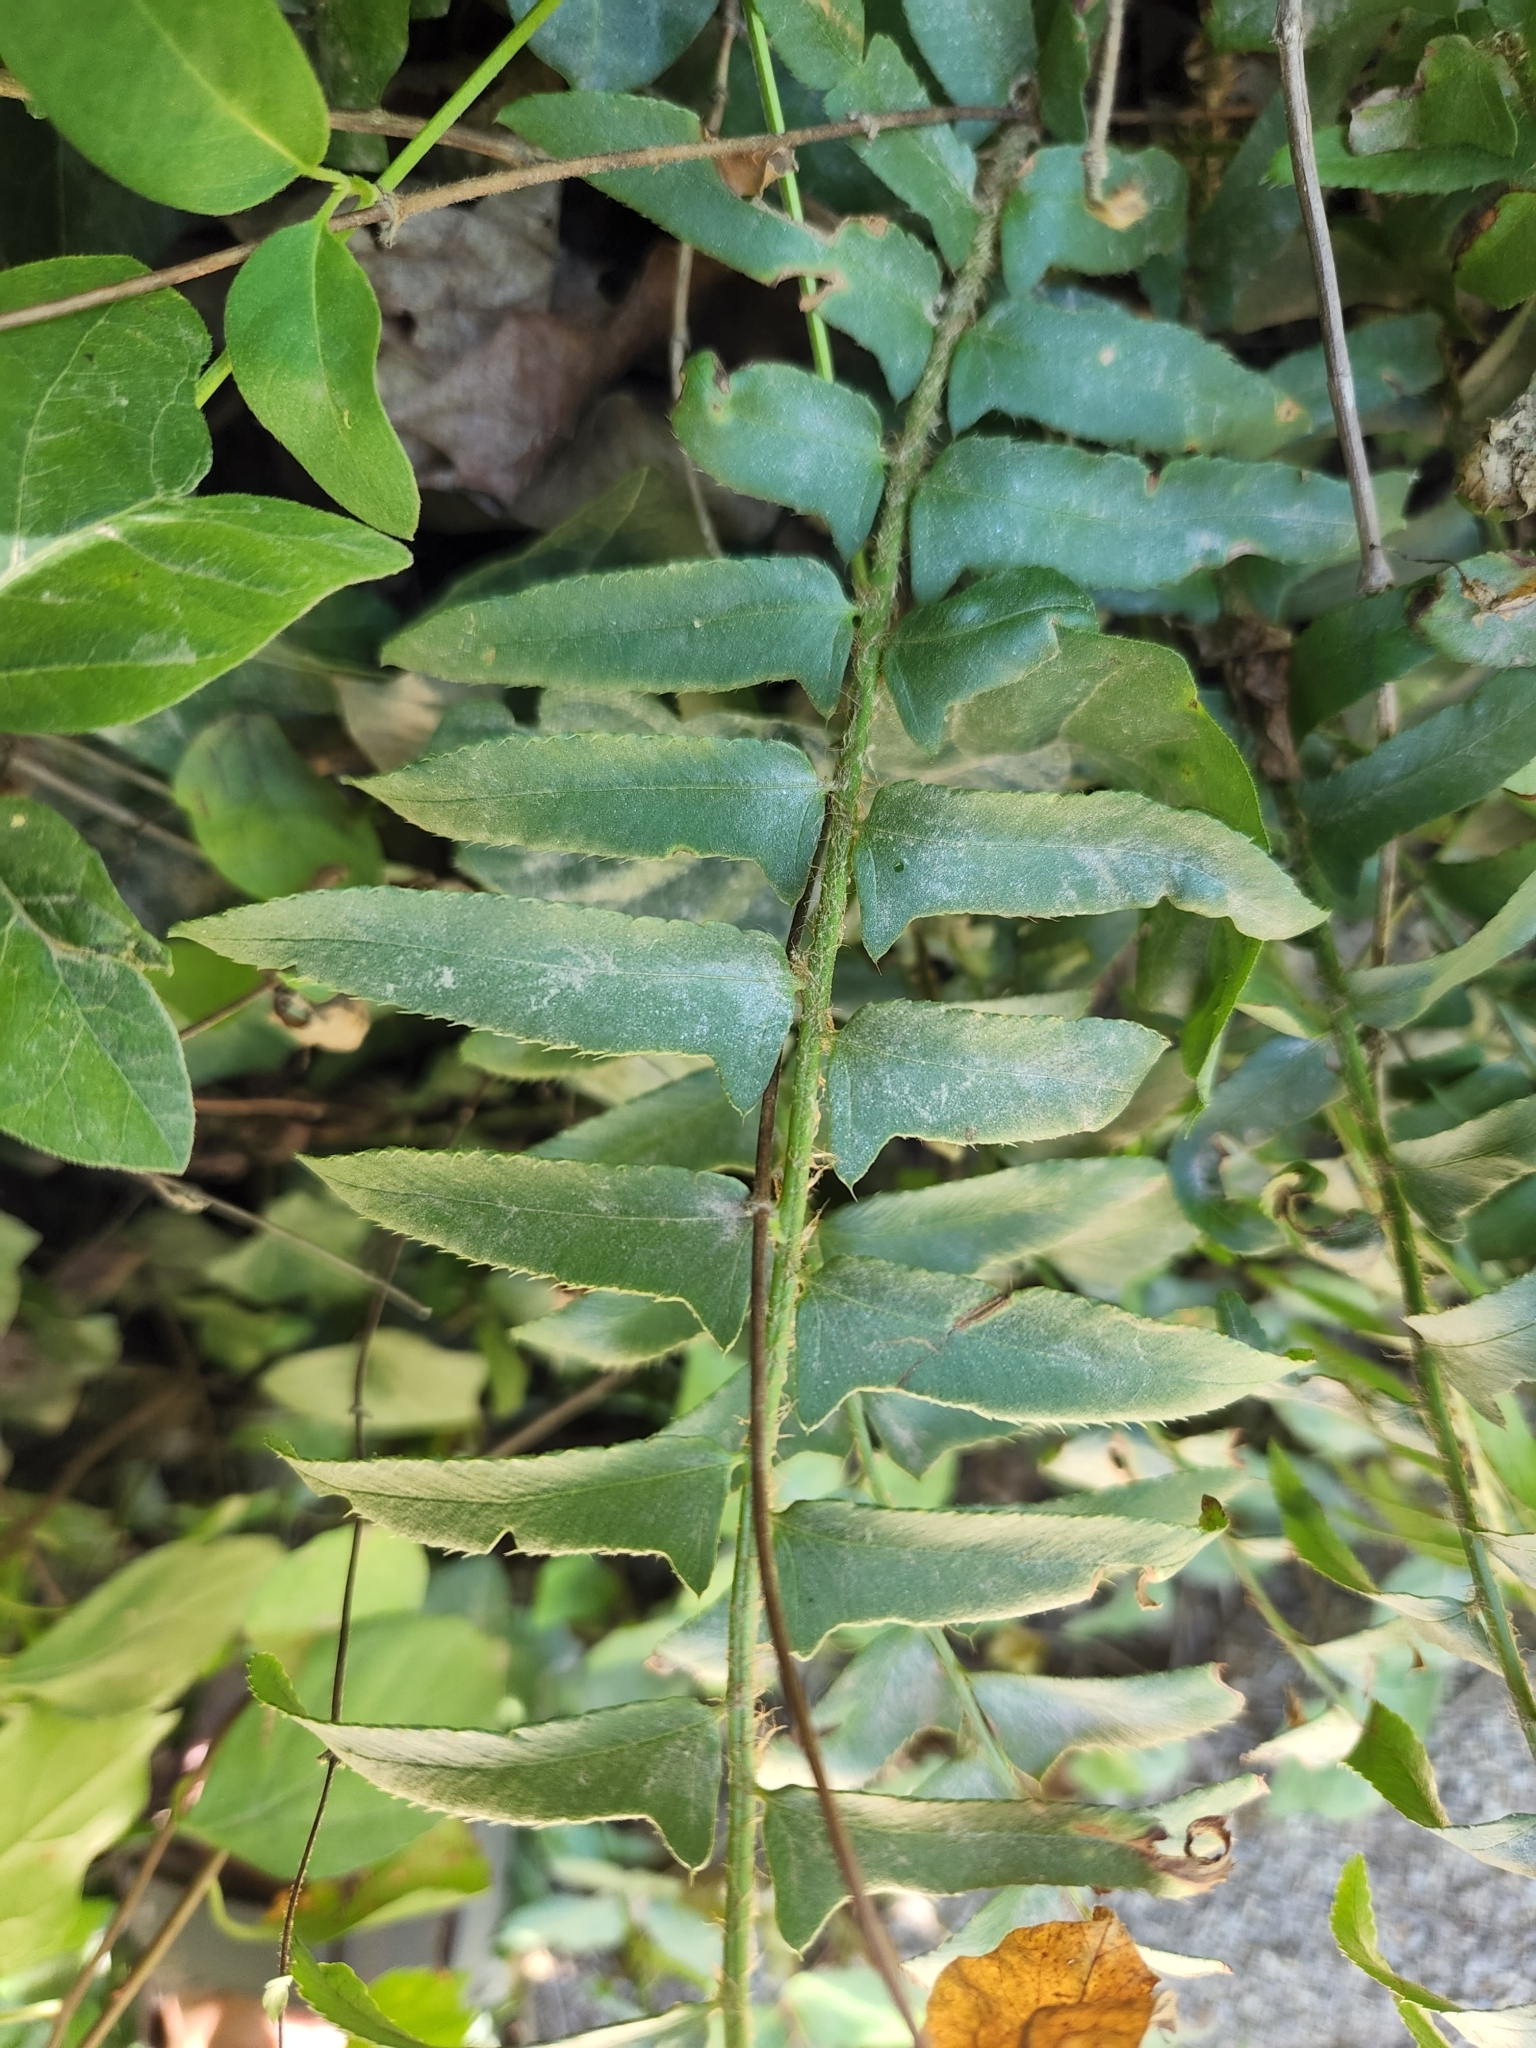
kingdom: Plantae
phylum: Tracheophyta
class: Polypodiopsida
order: Polypodiales
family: Dryopteridaceae
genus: Polystichum
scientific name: Polystichum acrostichoides
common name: Christmas fern
